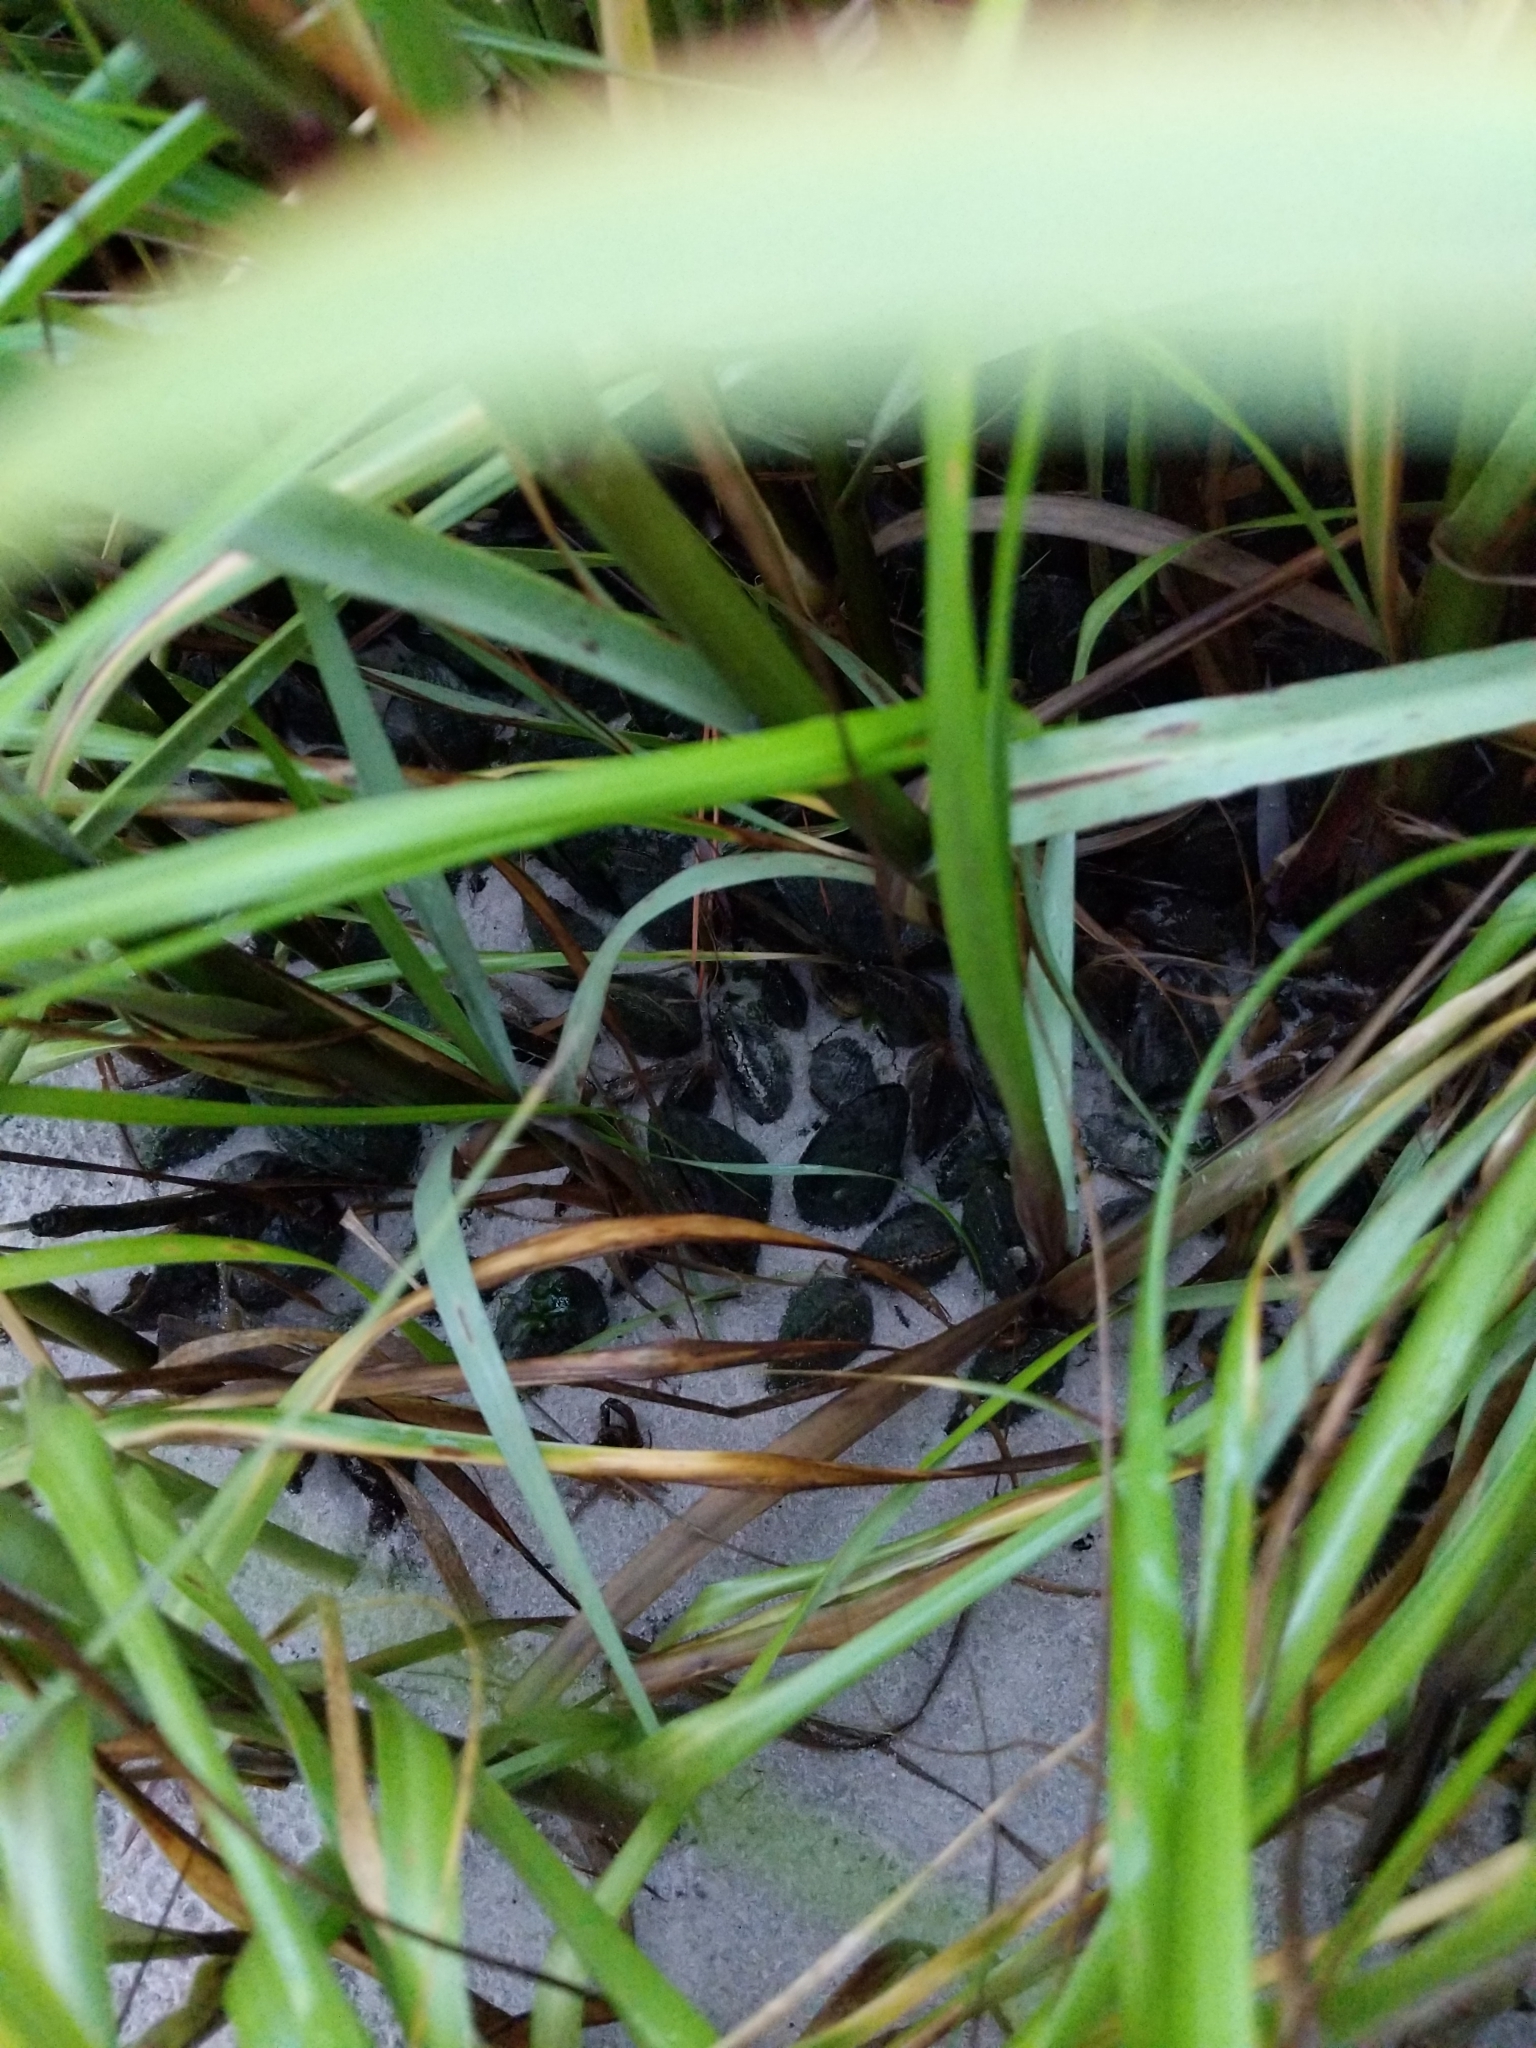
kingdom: Animalia
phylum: Mollusca
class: Bivalvia
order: Mytilida
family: Mytilidae
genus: Geukensia
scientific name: Geukensia demissa
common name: Ribbed mussel
